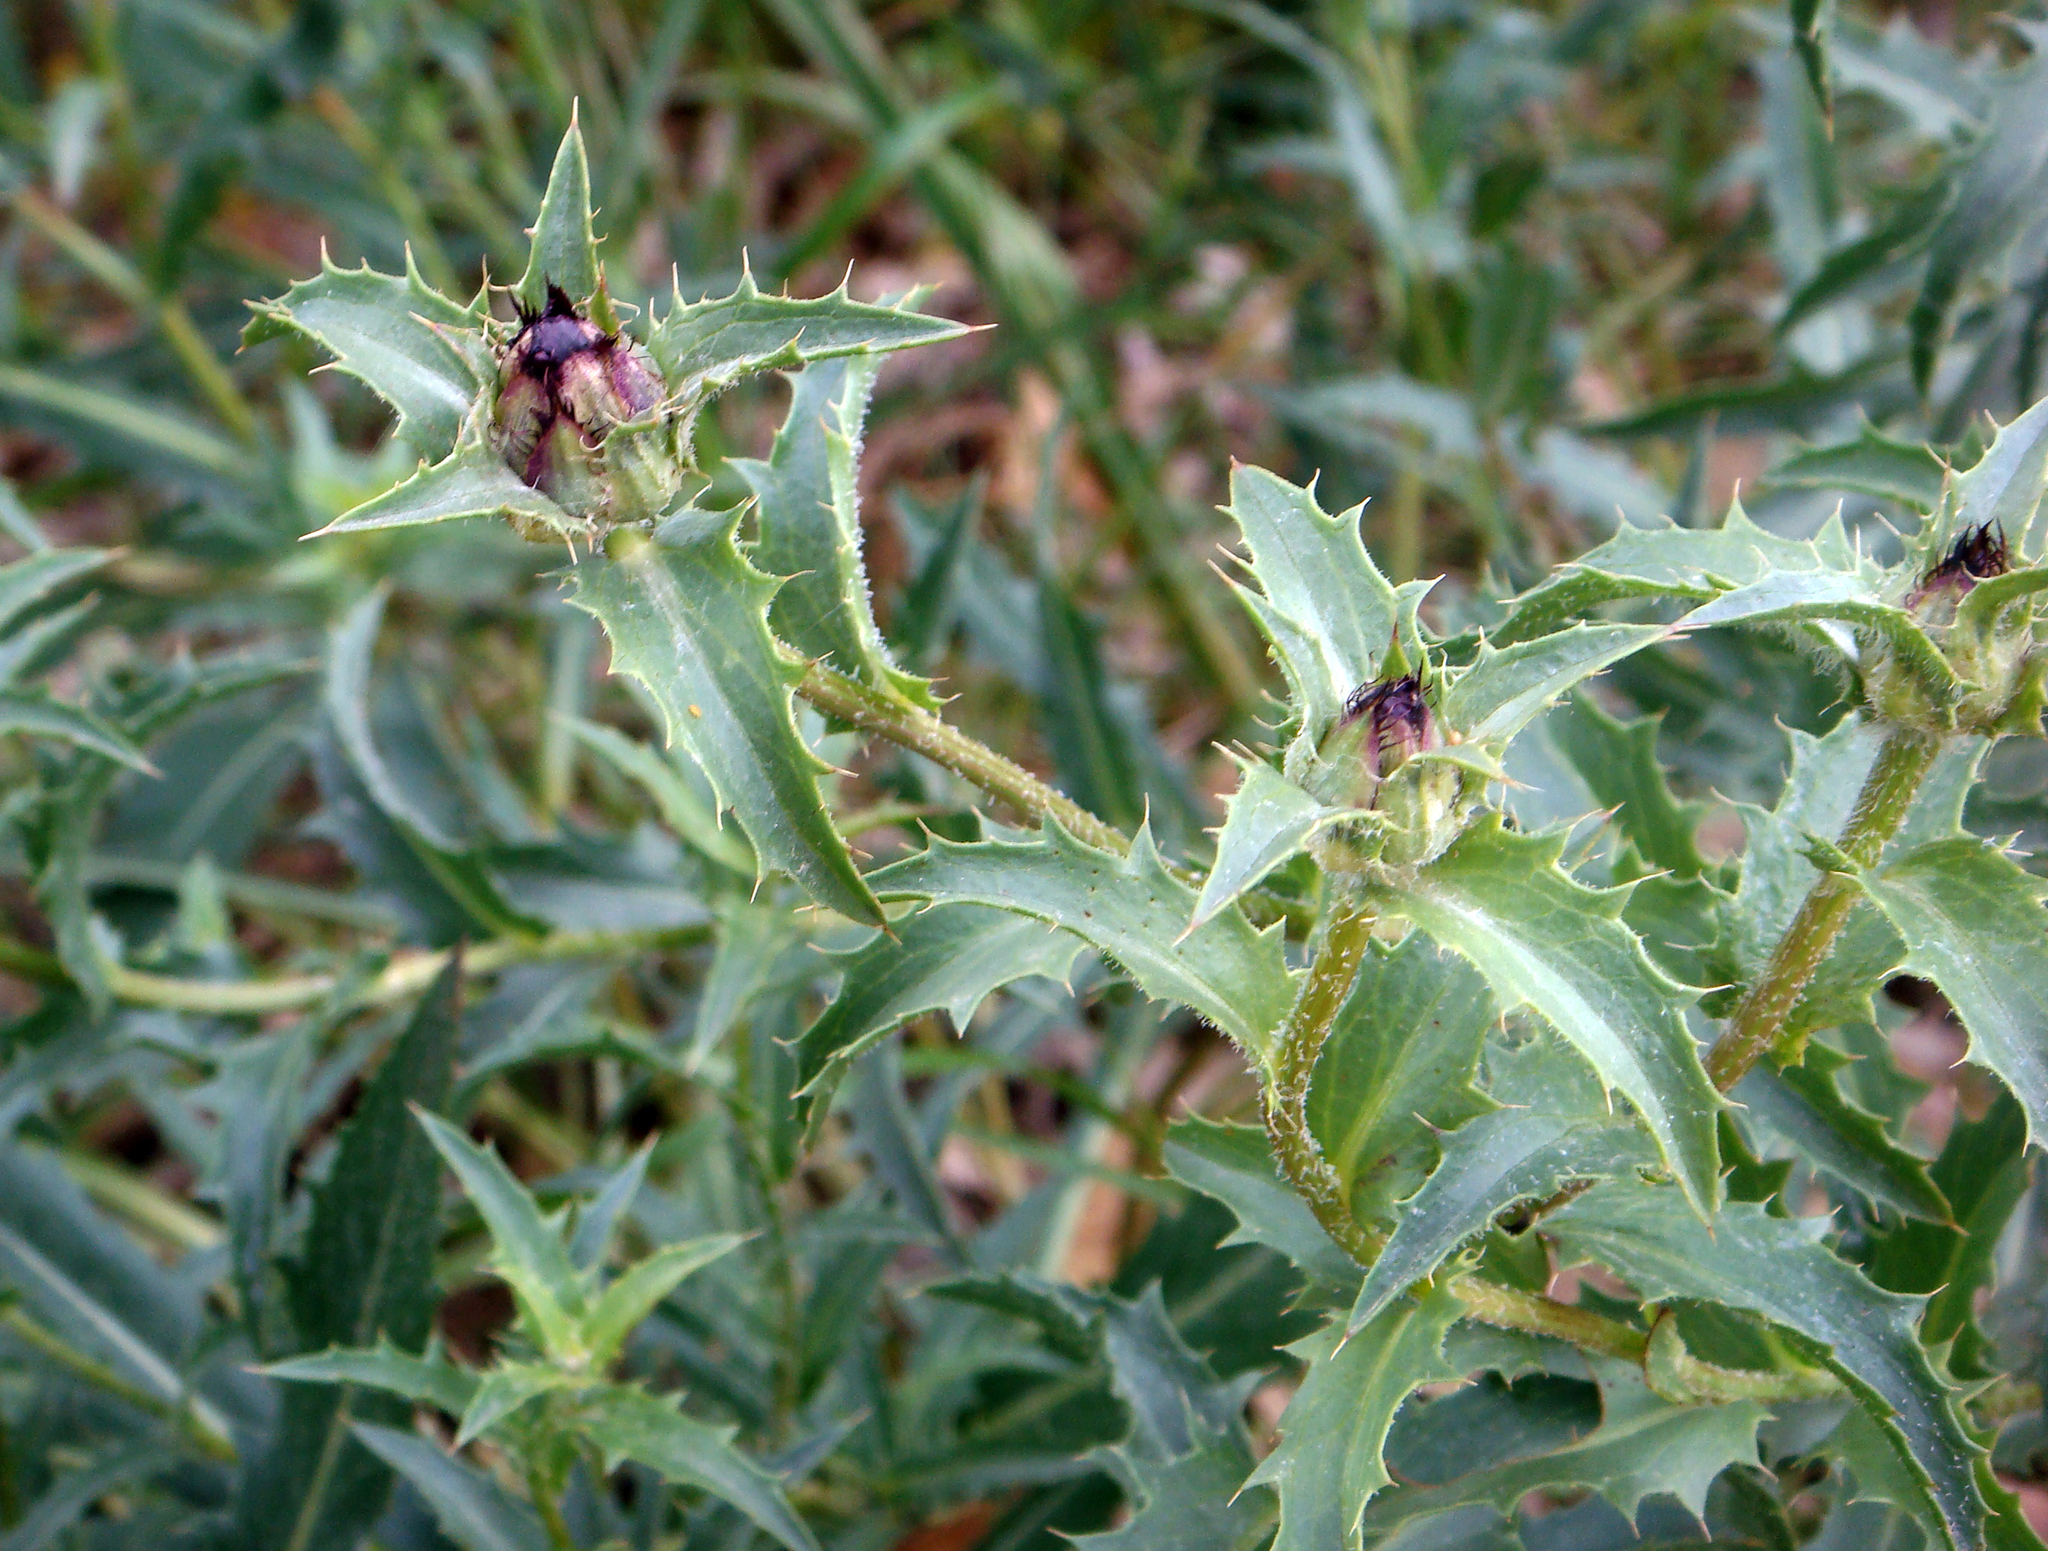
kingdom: Plantae
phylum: Tracheophyta
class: Magnoliopsida
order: Asterales
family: Asteraceae
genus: Carduncellus
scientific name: Carduncellus caeruleus
